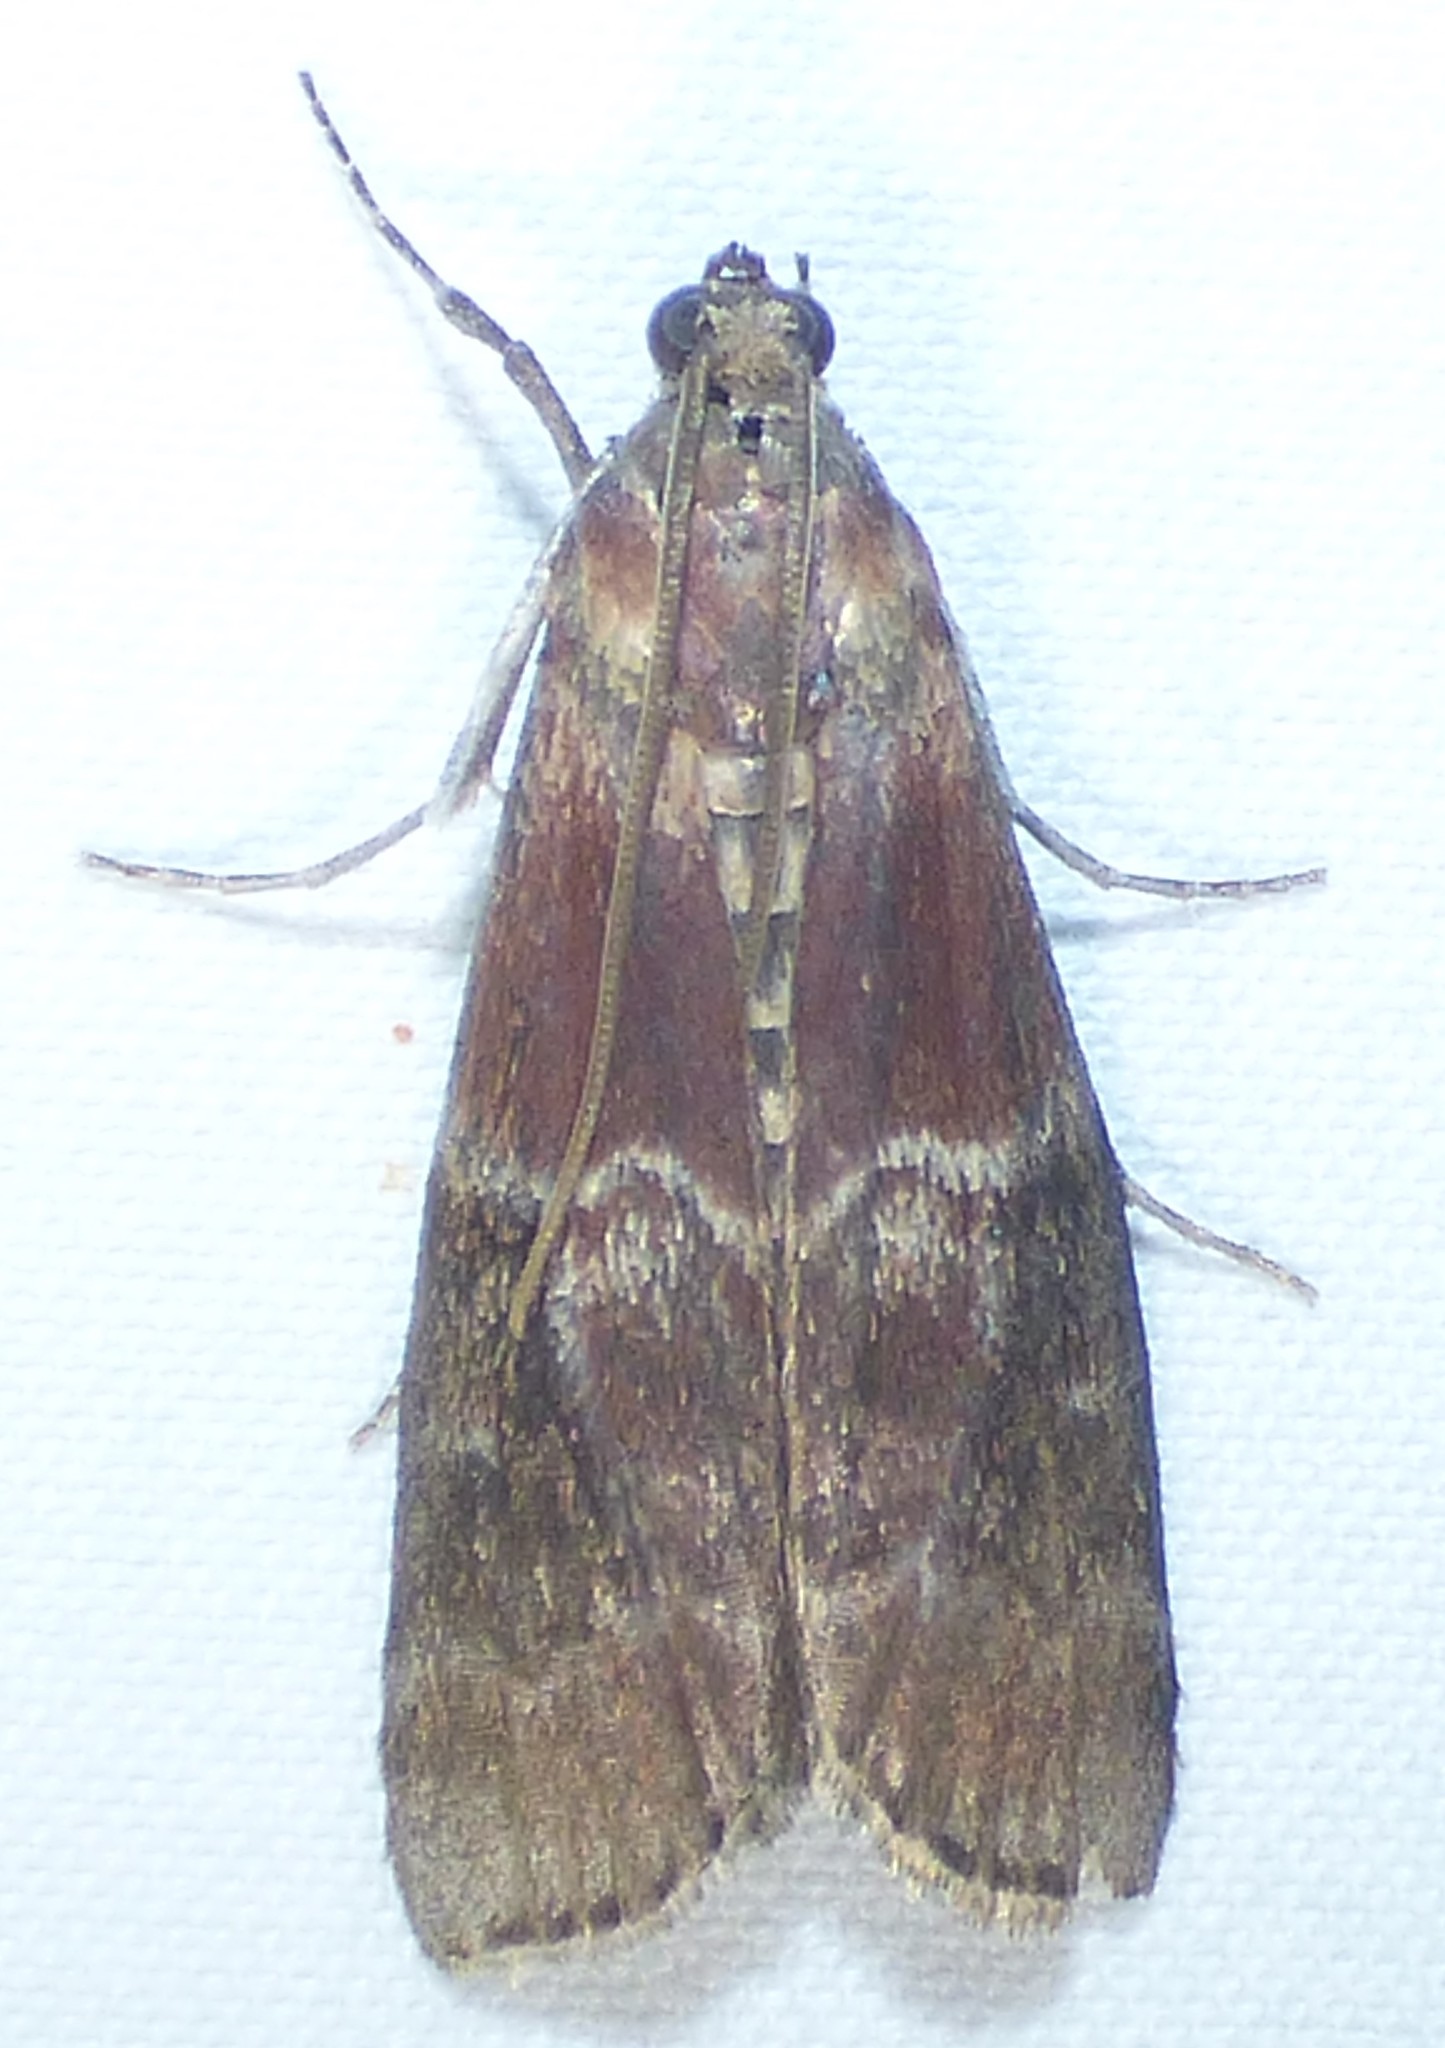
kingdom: Animalia
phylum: Arthropoda
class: Insecta
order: Lepidoptera
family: Pyralidae
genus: Euzophera
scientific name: Euzophera ostricolorella
